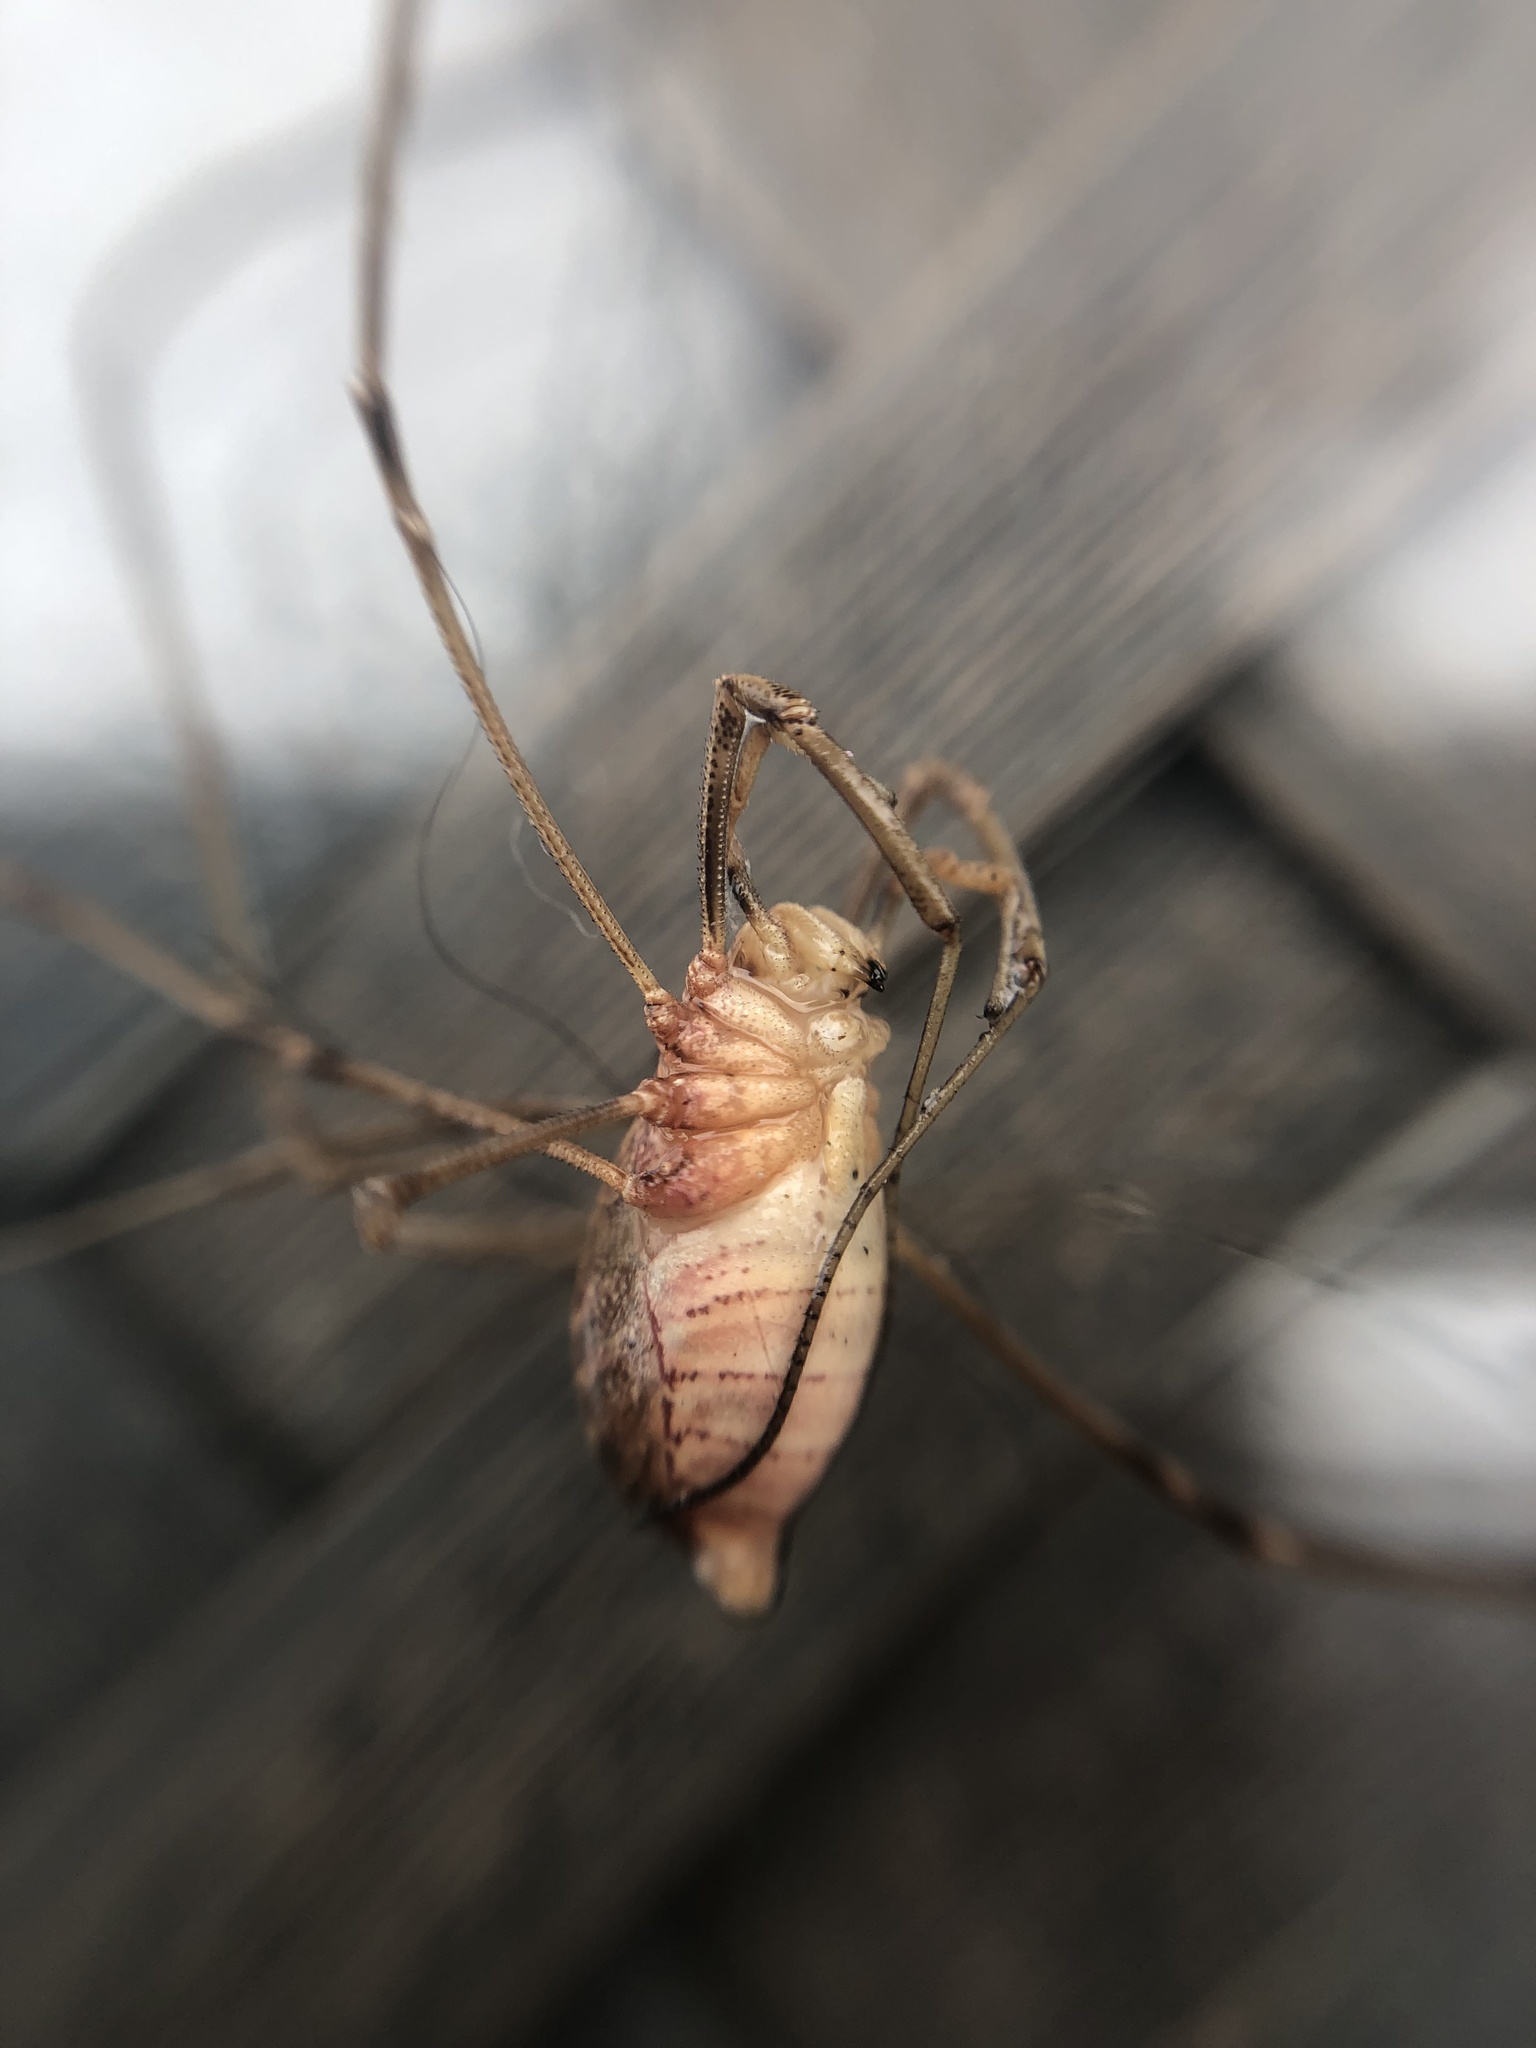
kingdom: Animalia
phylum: Arthropoda
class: Arachnida
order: Opiliones
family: Phalangiidae
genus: Phalangium
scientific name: Phalangium opilio
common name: Daddy longleg
